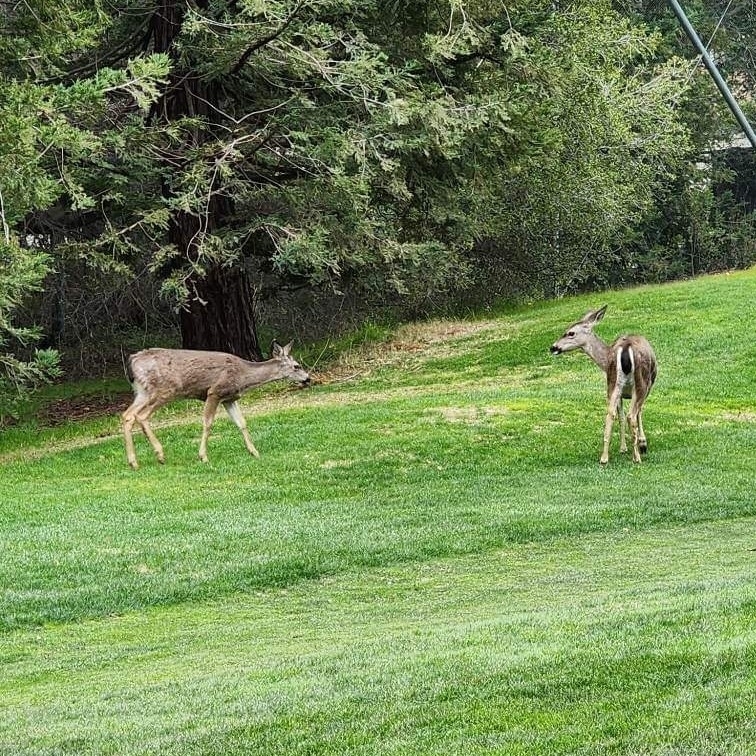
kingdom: Animalia
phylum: Chordata
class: Mammalia
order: Artiodactyla
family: Cervidae
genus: Odocoileus
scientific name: Odocoileus hemionus
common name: Mule deer
